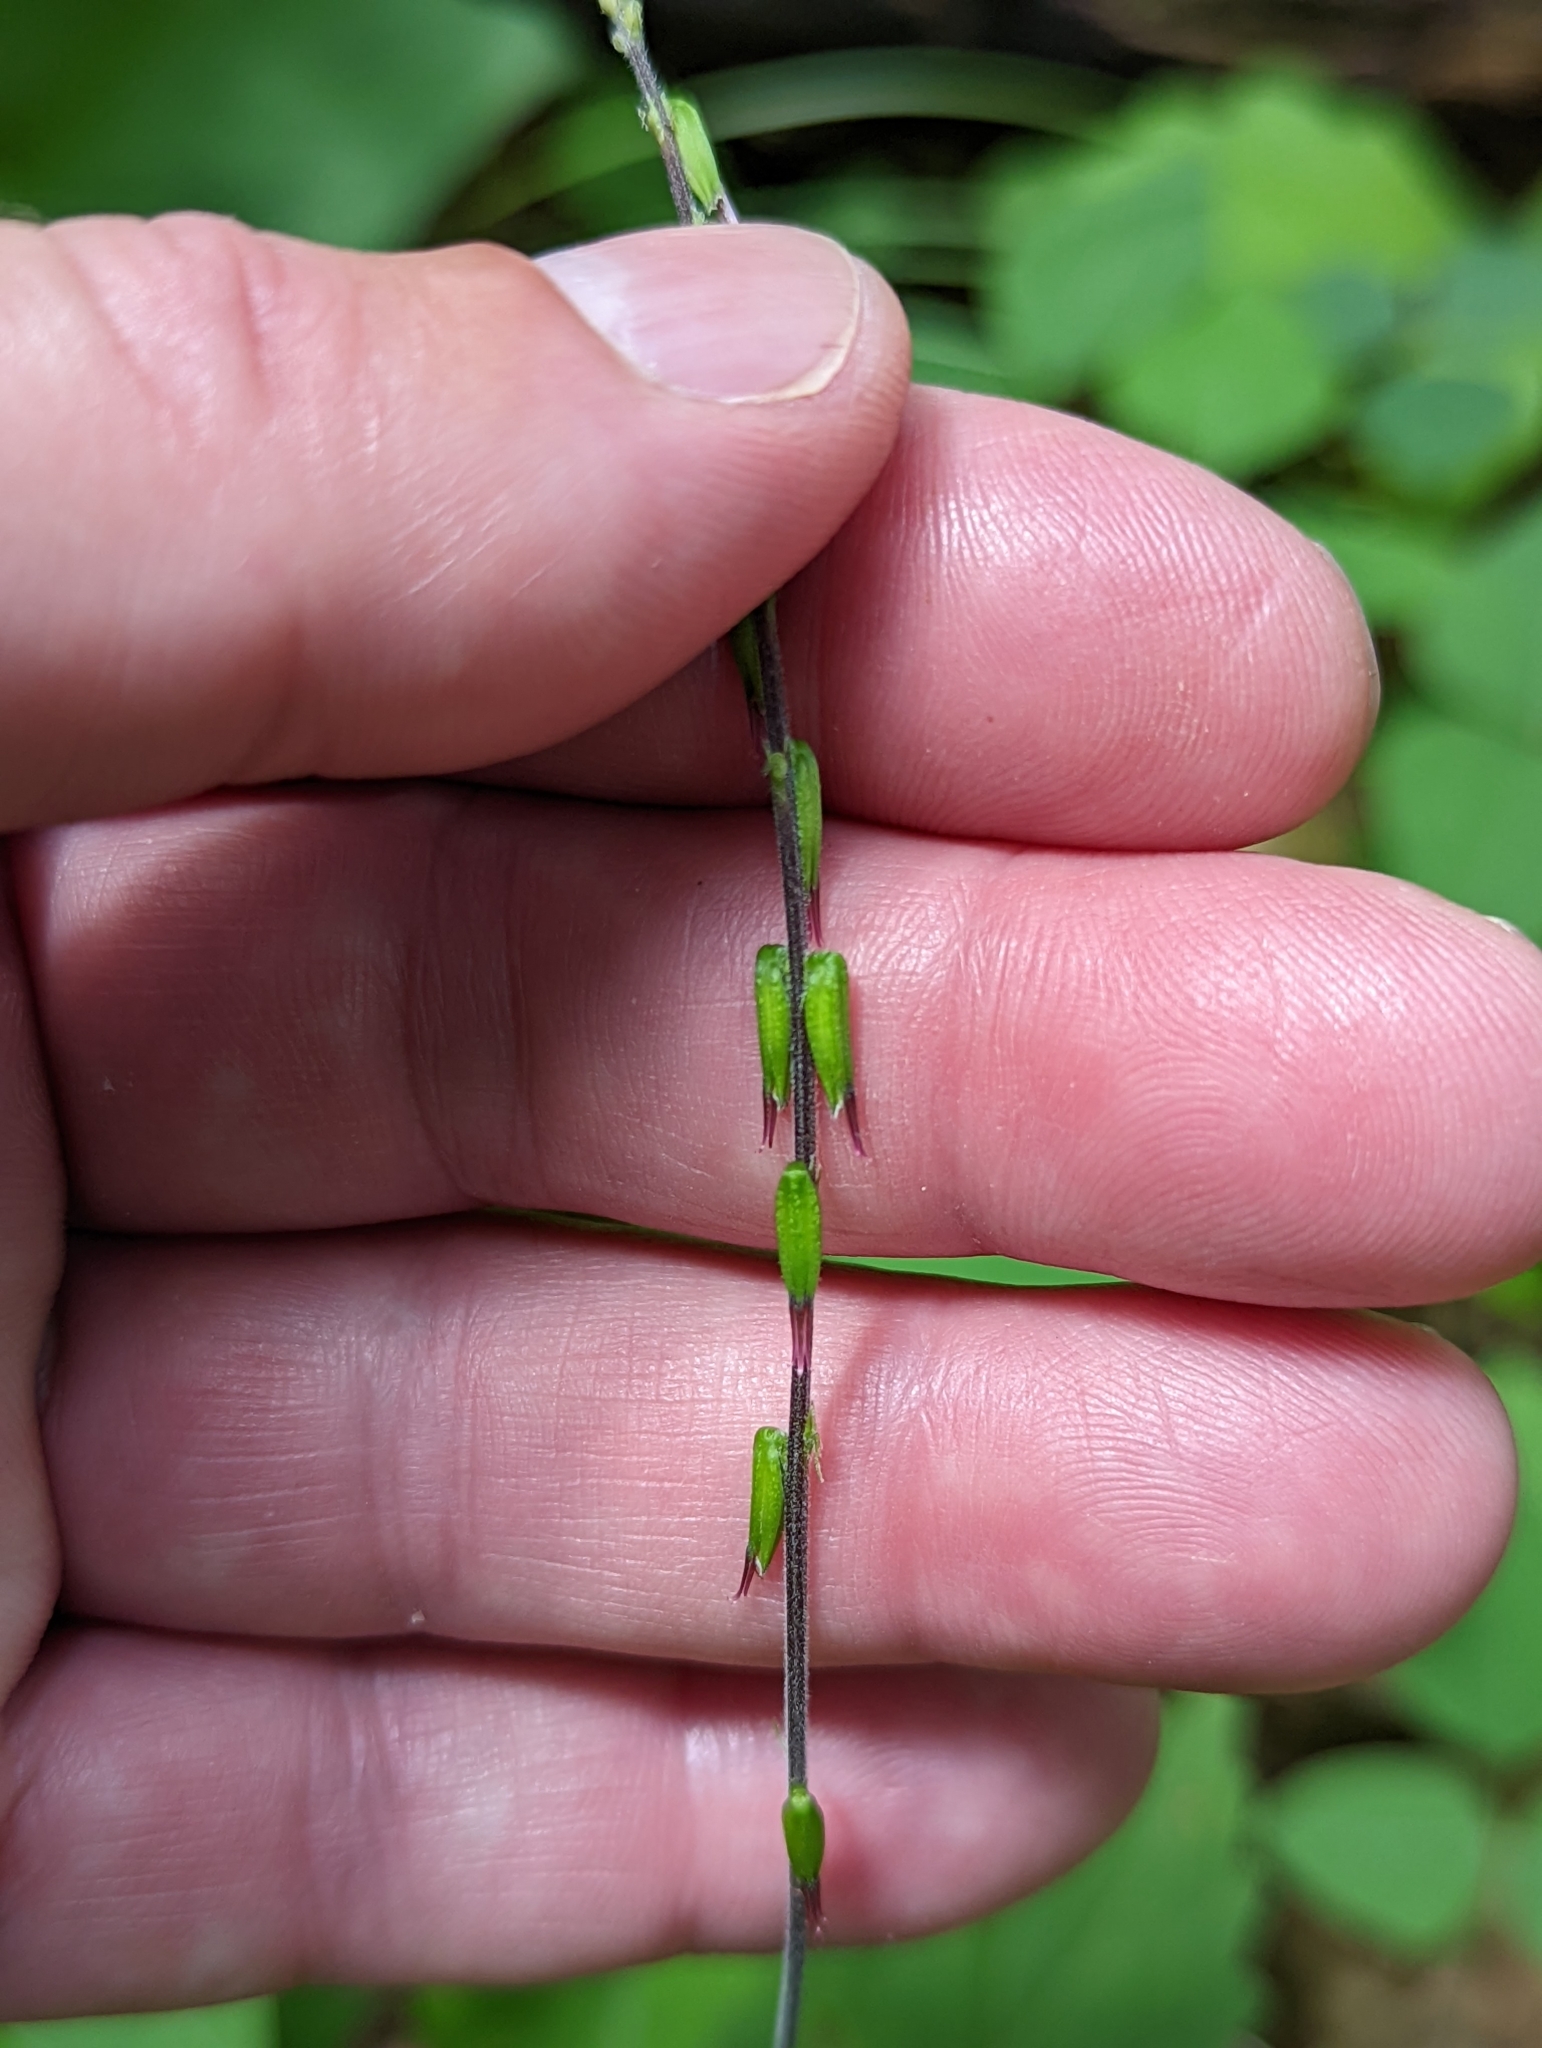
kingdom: Plantae
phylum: Tracheophyta
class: Magnoliopsida
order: Lamiales
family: Phrymaceae
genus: Phryma
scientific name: Phryma leptostachya
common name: American lopseed
